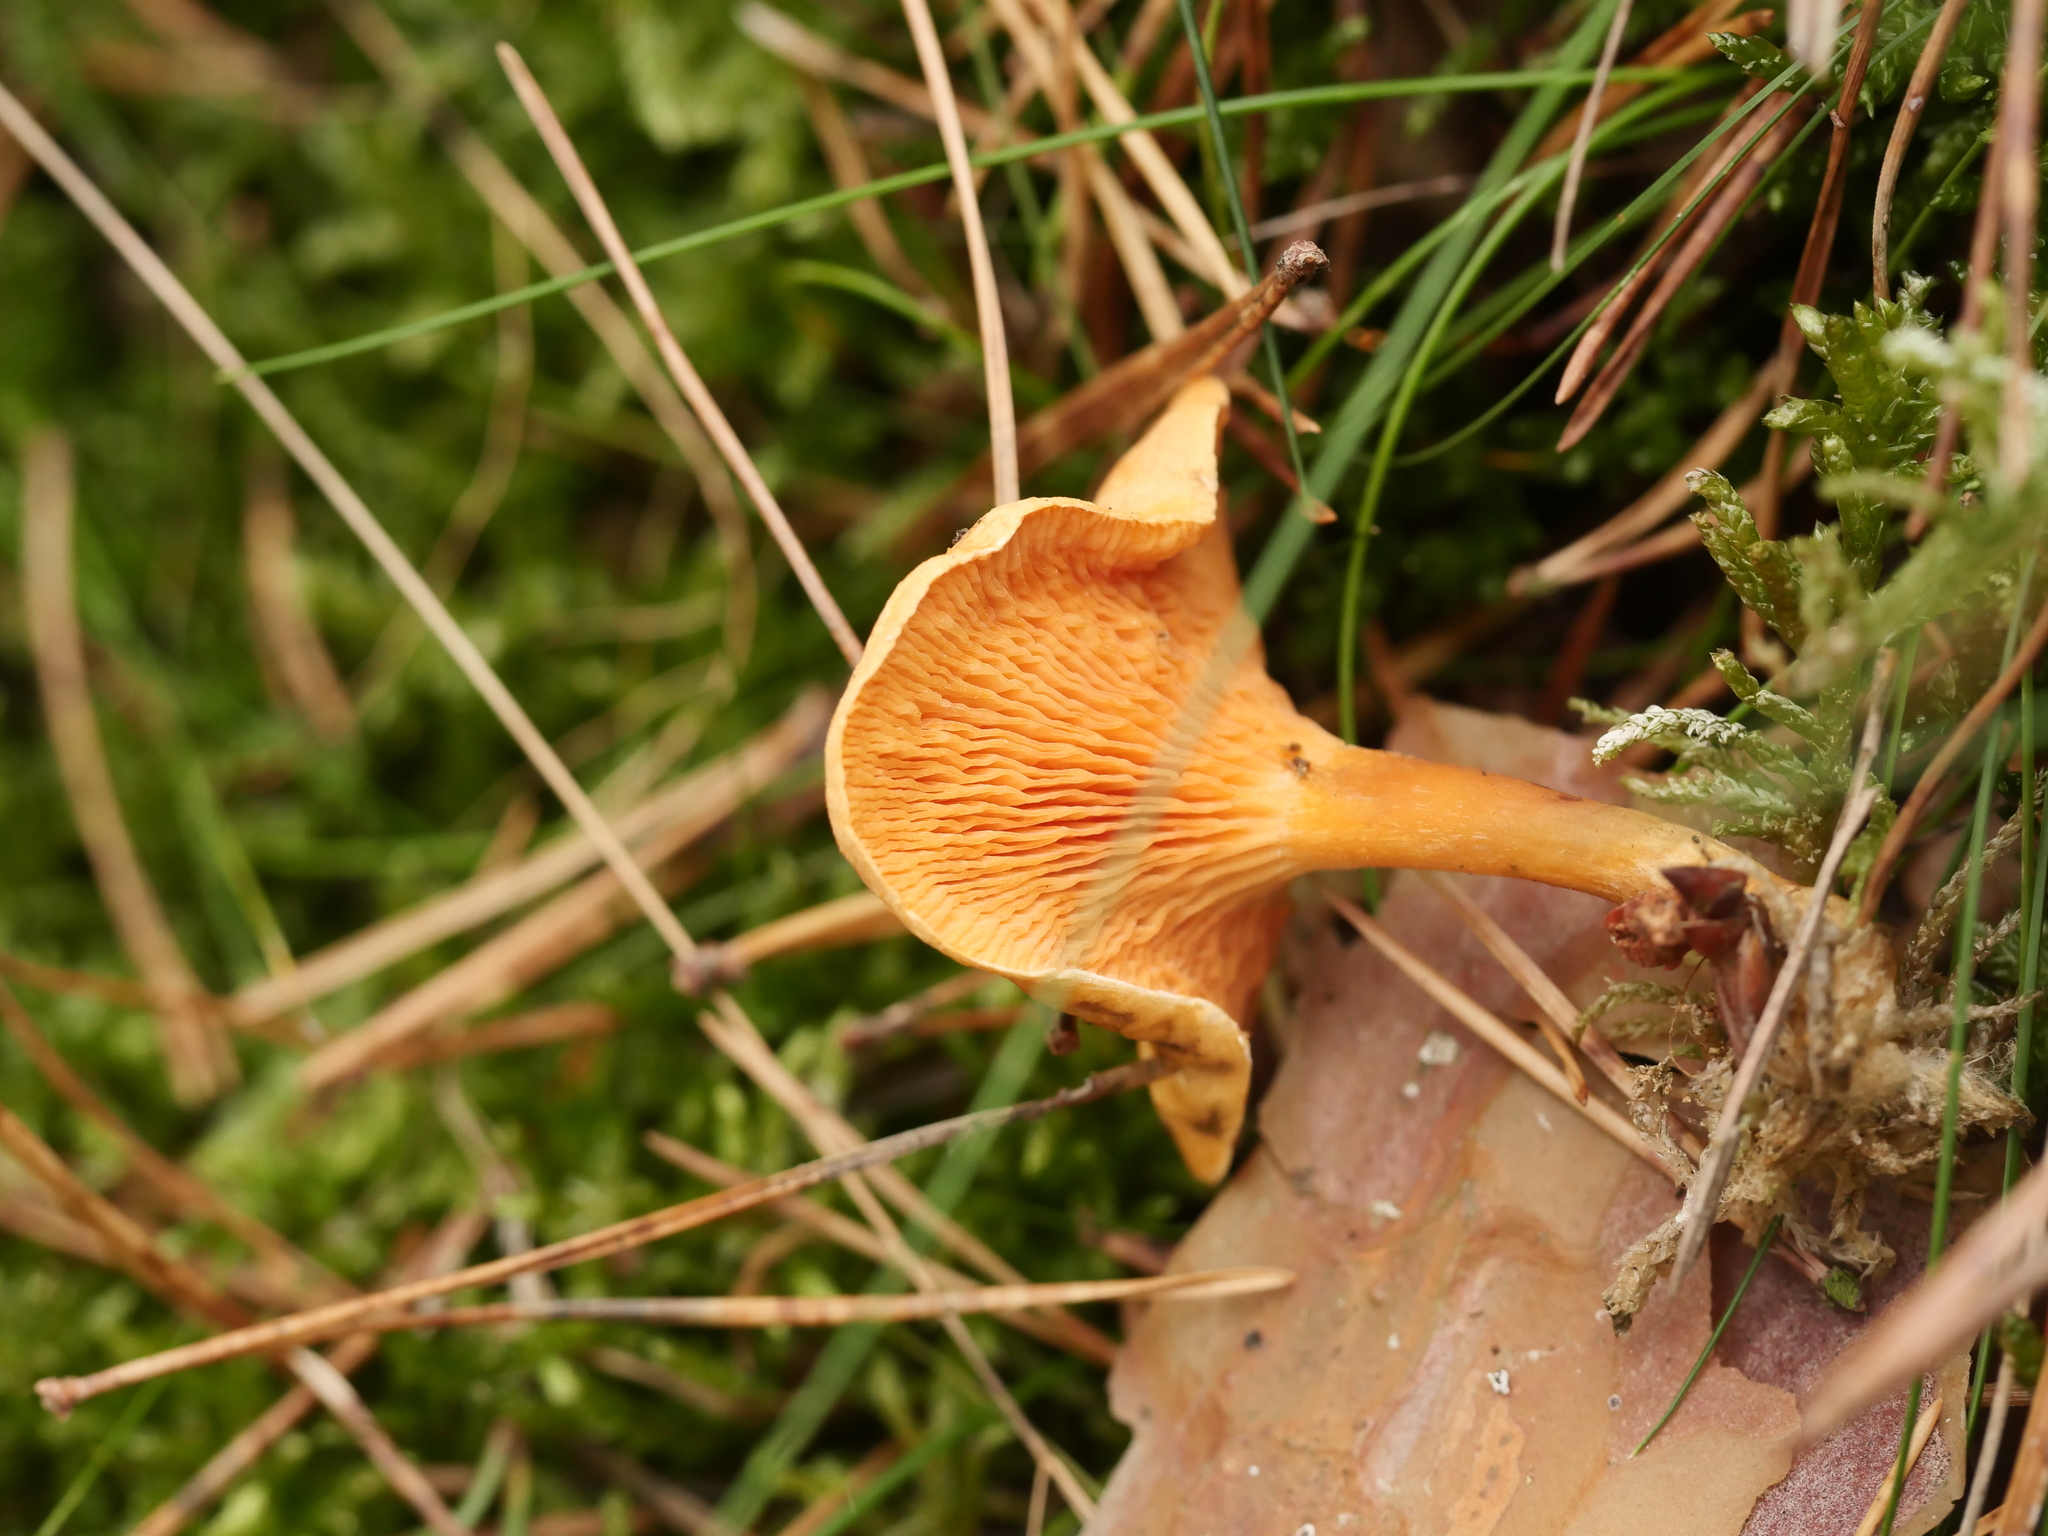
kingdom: Fungi
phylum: Basidiomycota
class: Agaricomycetes
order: Boletales
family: Hygrophoropsidaceae
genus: Hygrophoropsis
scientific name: Hygrophoropsis aurantiaca
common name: False chanterelle
